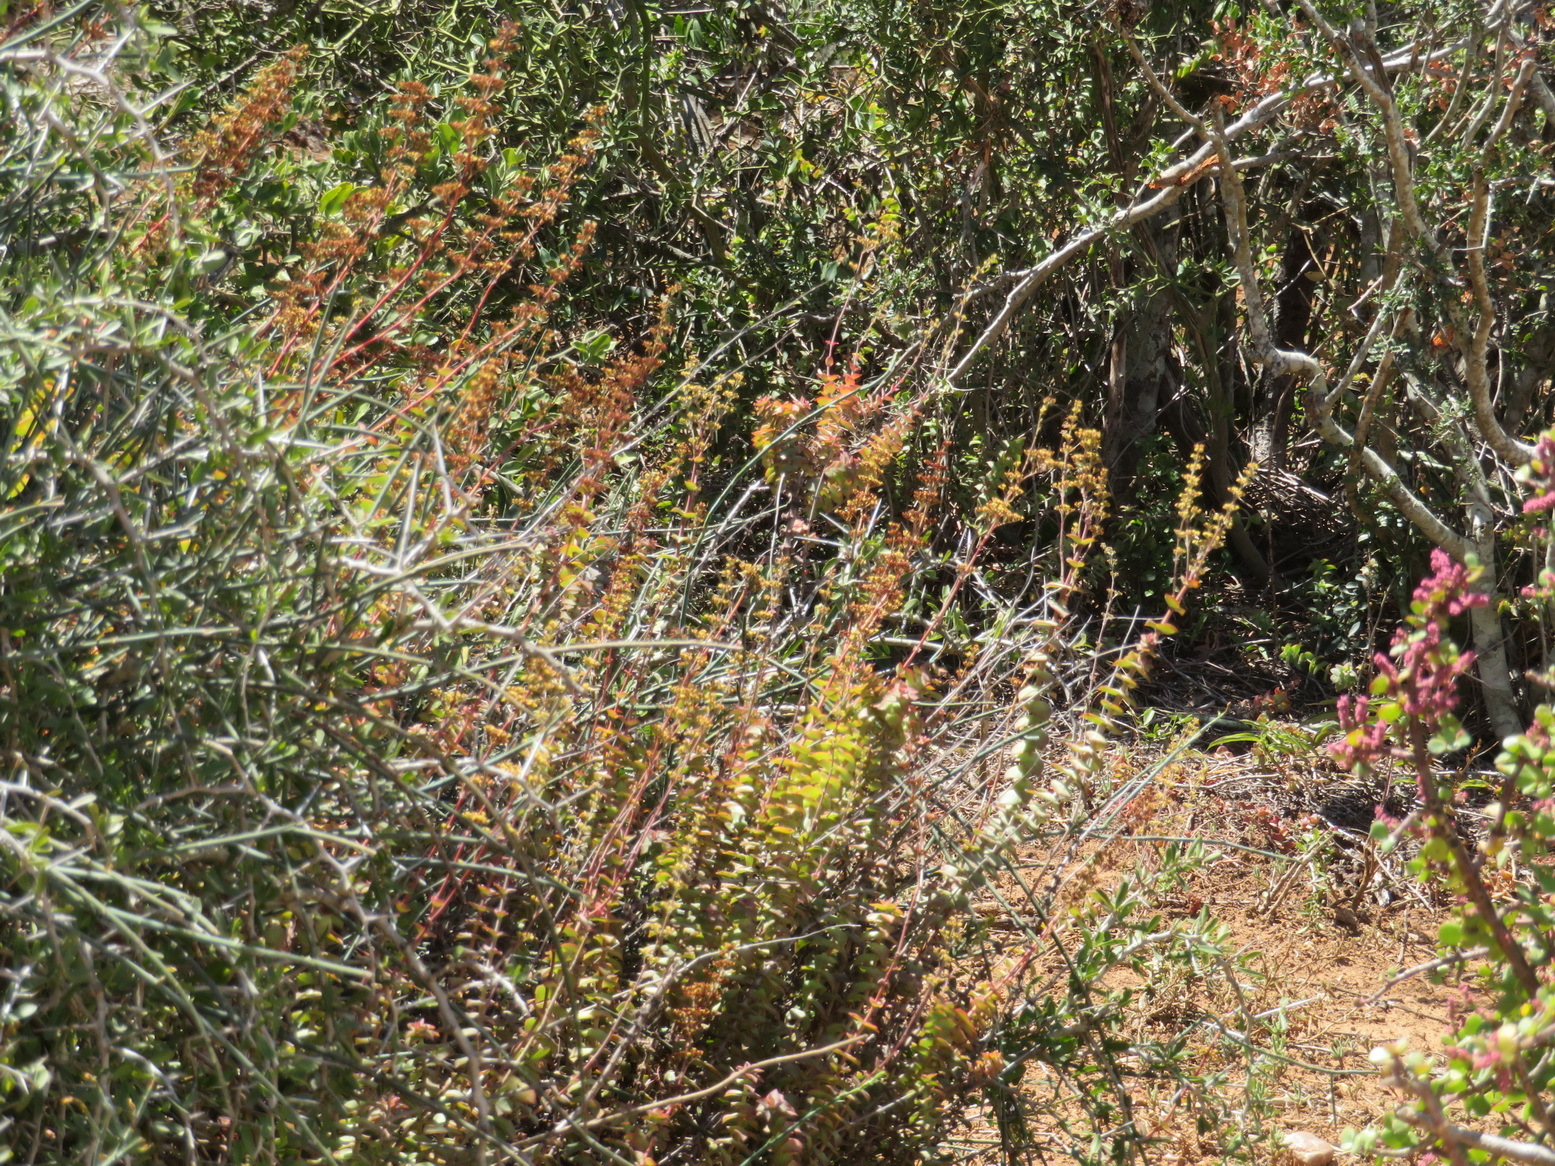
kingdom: Plantae
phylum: Tracheophyta
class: Magnoliopsida
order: Saxifragales
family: Crassulaceae
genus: Crassula
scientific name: Crassula perforata
